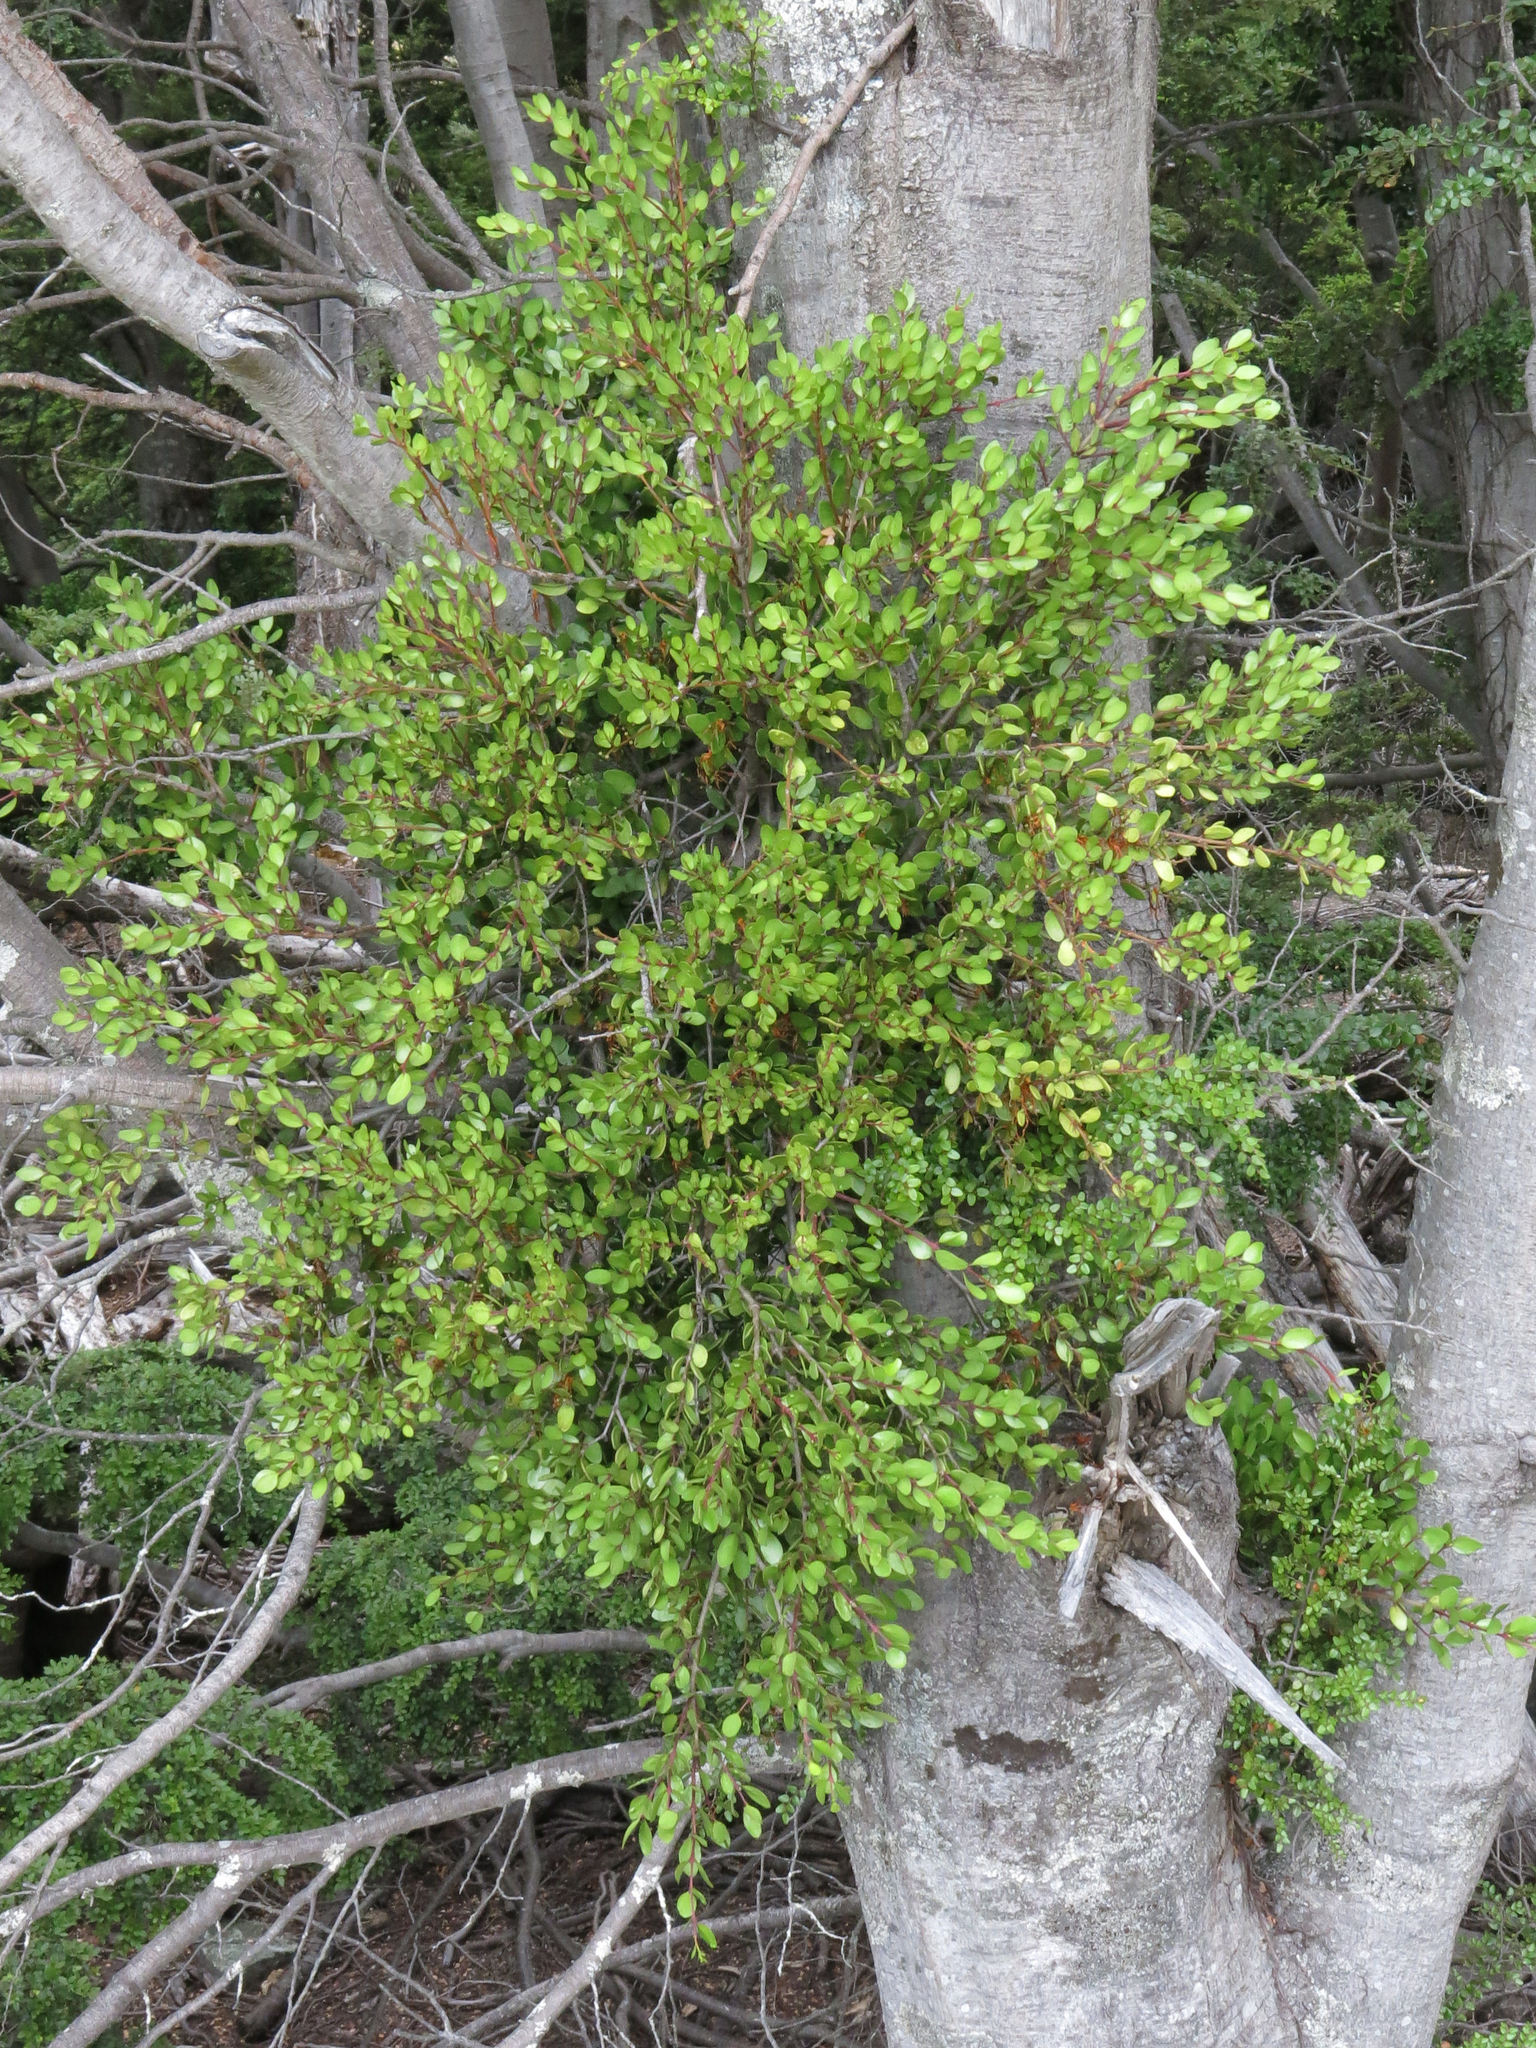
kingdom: Plantae
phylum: Tracheophyta
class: Magnoliopsida
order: Santalales
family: Loranthaceae
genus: Peraxilla
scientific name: Peraxilla tetrapetala
